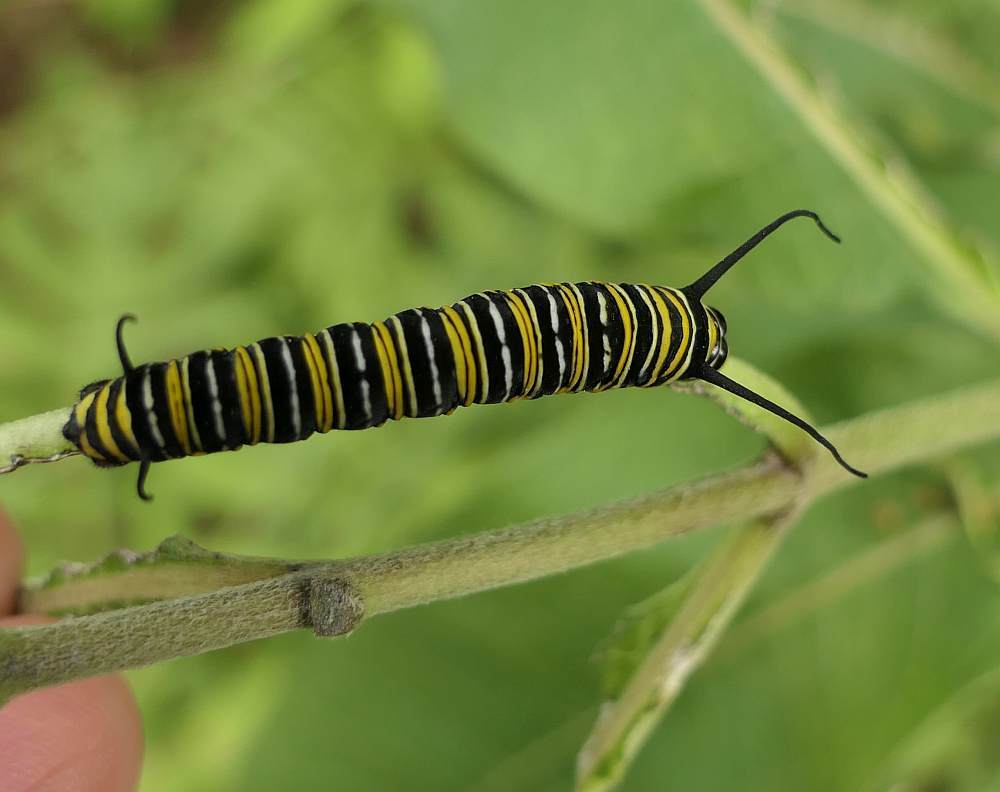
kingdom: Animalia
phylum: Arthropoda
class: Insecta
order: Lepidoptera
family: Nymphalidae
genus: Danaus
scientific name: Danaus plexippus
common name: Monarch
